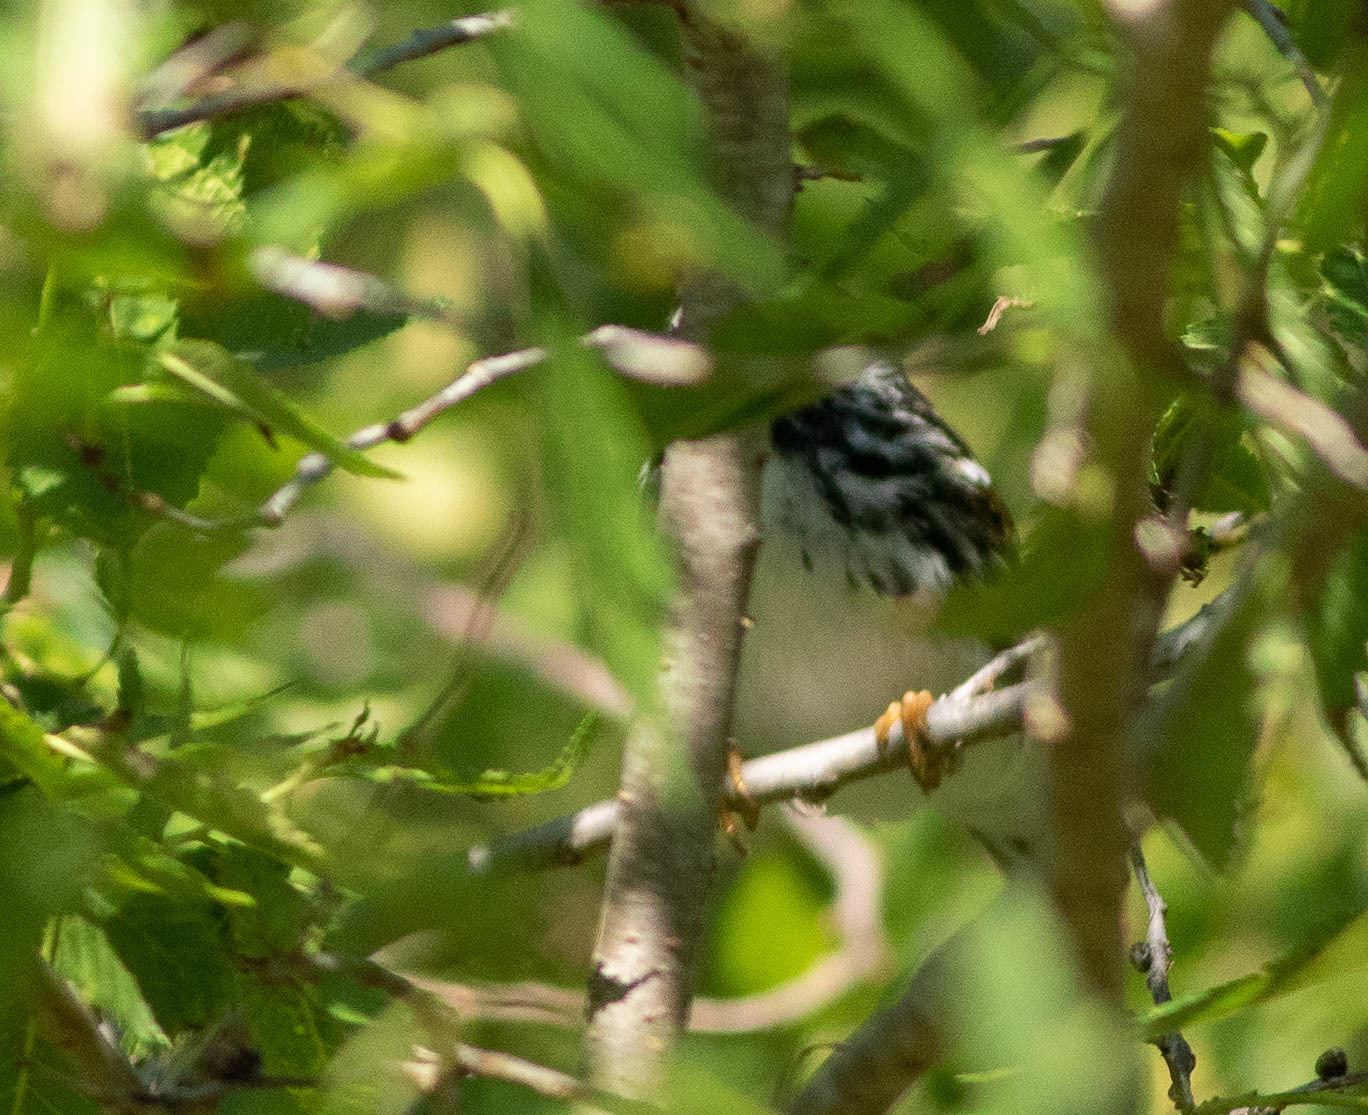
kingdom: Animalia
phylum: Chordata
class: Aves
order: Passeriformes
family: Parulidae
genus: Setophaga
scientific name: Setophaga striata
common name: Blackpoll warbler
